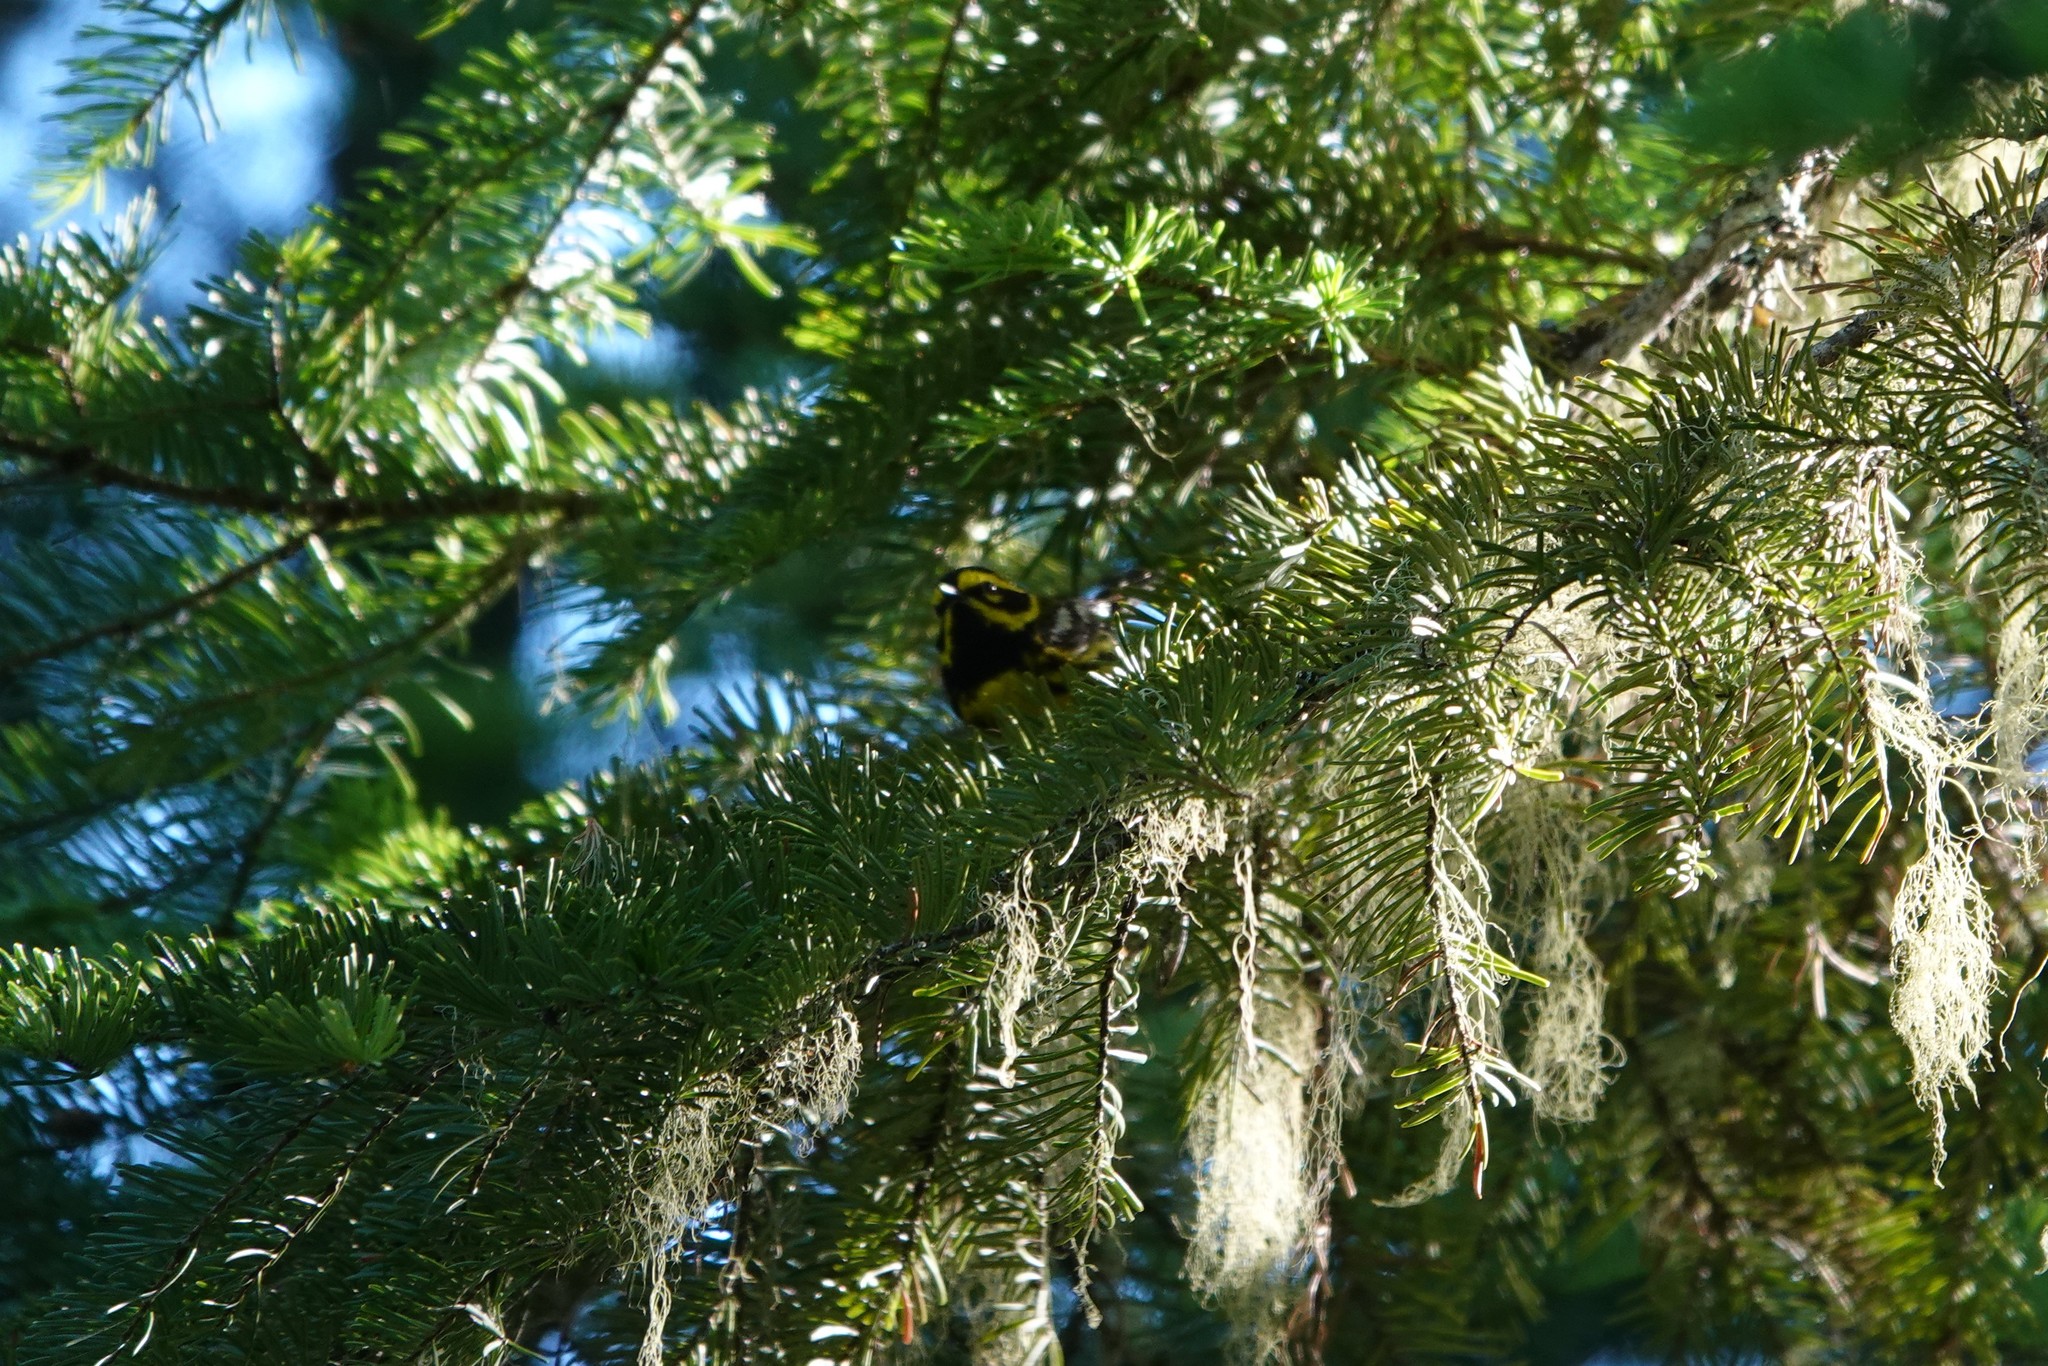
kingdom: Animalia
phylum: Chordata
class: Aves
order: Passeriformes
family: Parulidae
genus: Setophaga
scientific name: Setophaga townsendi
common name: Townsend's warbler
